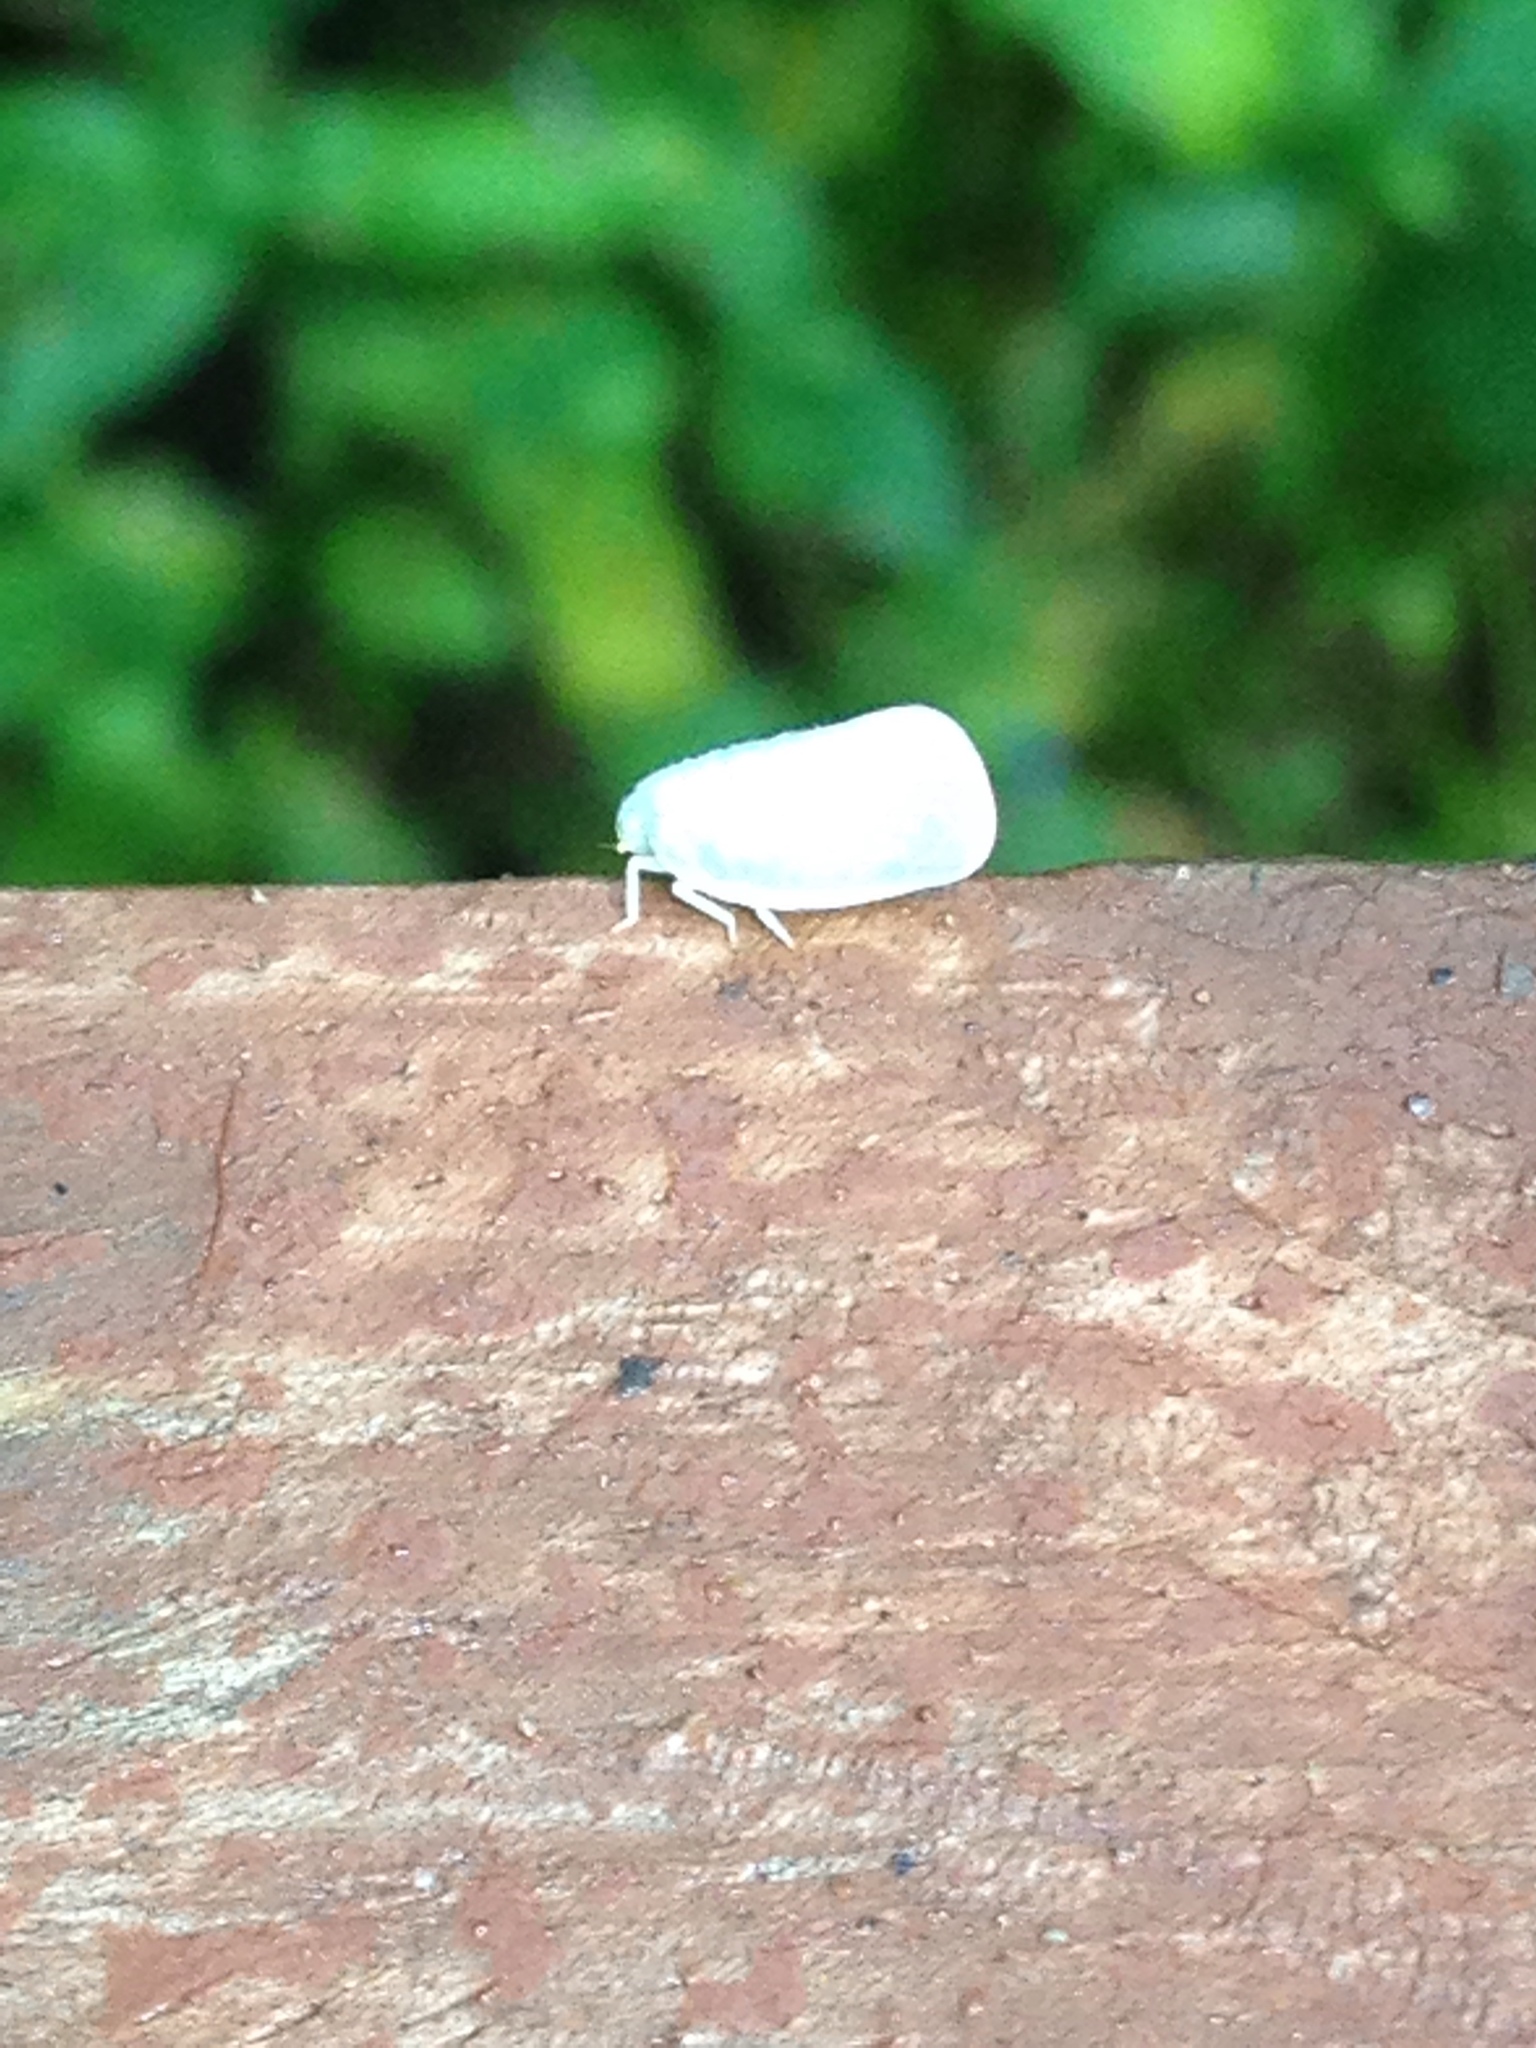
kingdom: Animalia
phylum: Arthropoda
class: Insecta
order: Hemiptera
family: Flatidae
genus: Ormenoides
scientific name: Ormenoides venusta
